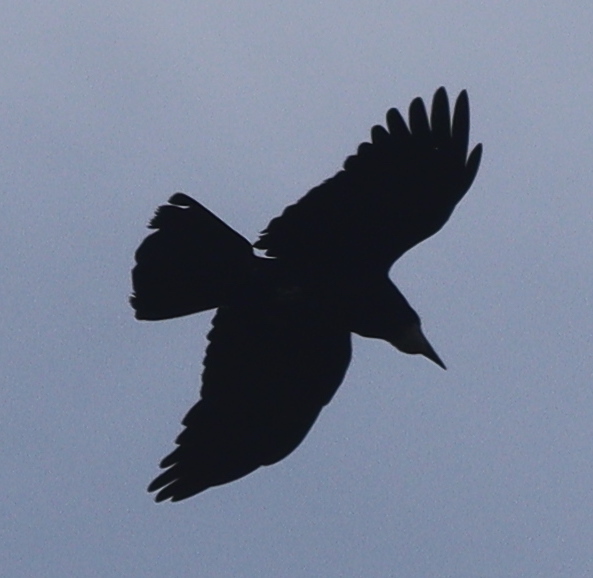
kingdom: Animalia
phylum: Chordata
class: Aves
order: Passeriformes
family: Corvidae
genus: Corvus
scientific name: Corvus frugilegus
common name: Rook
